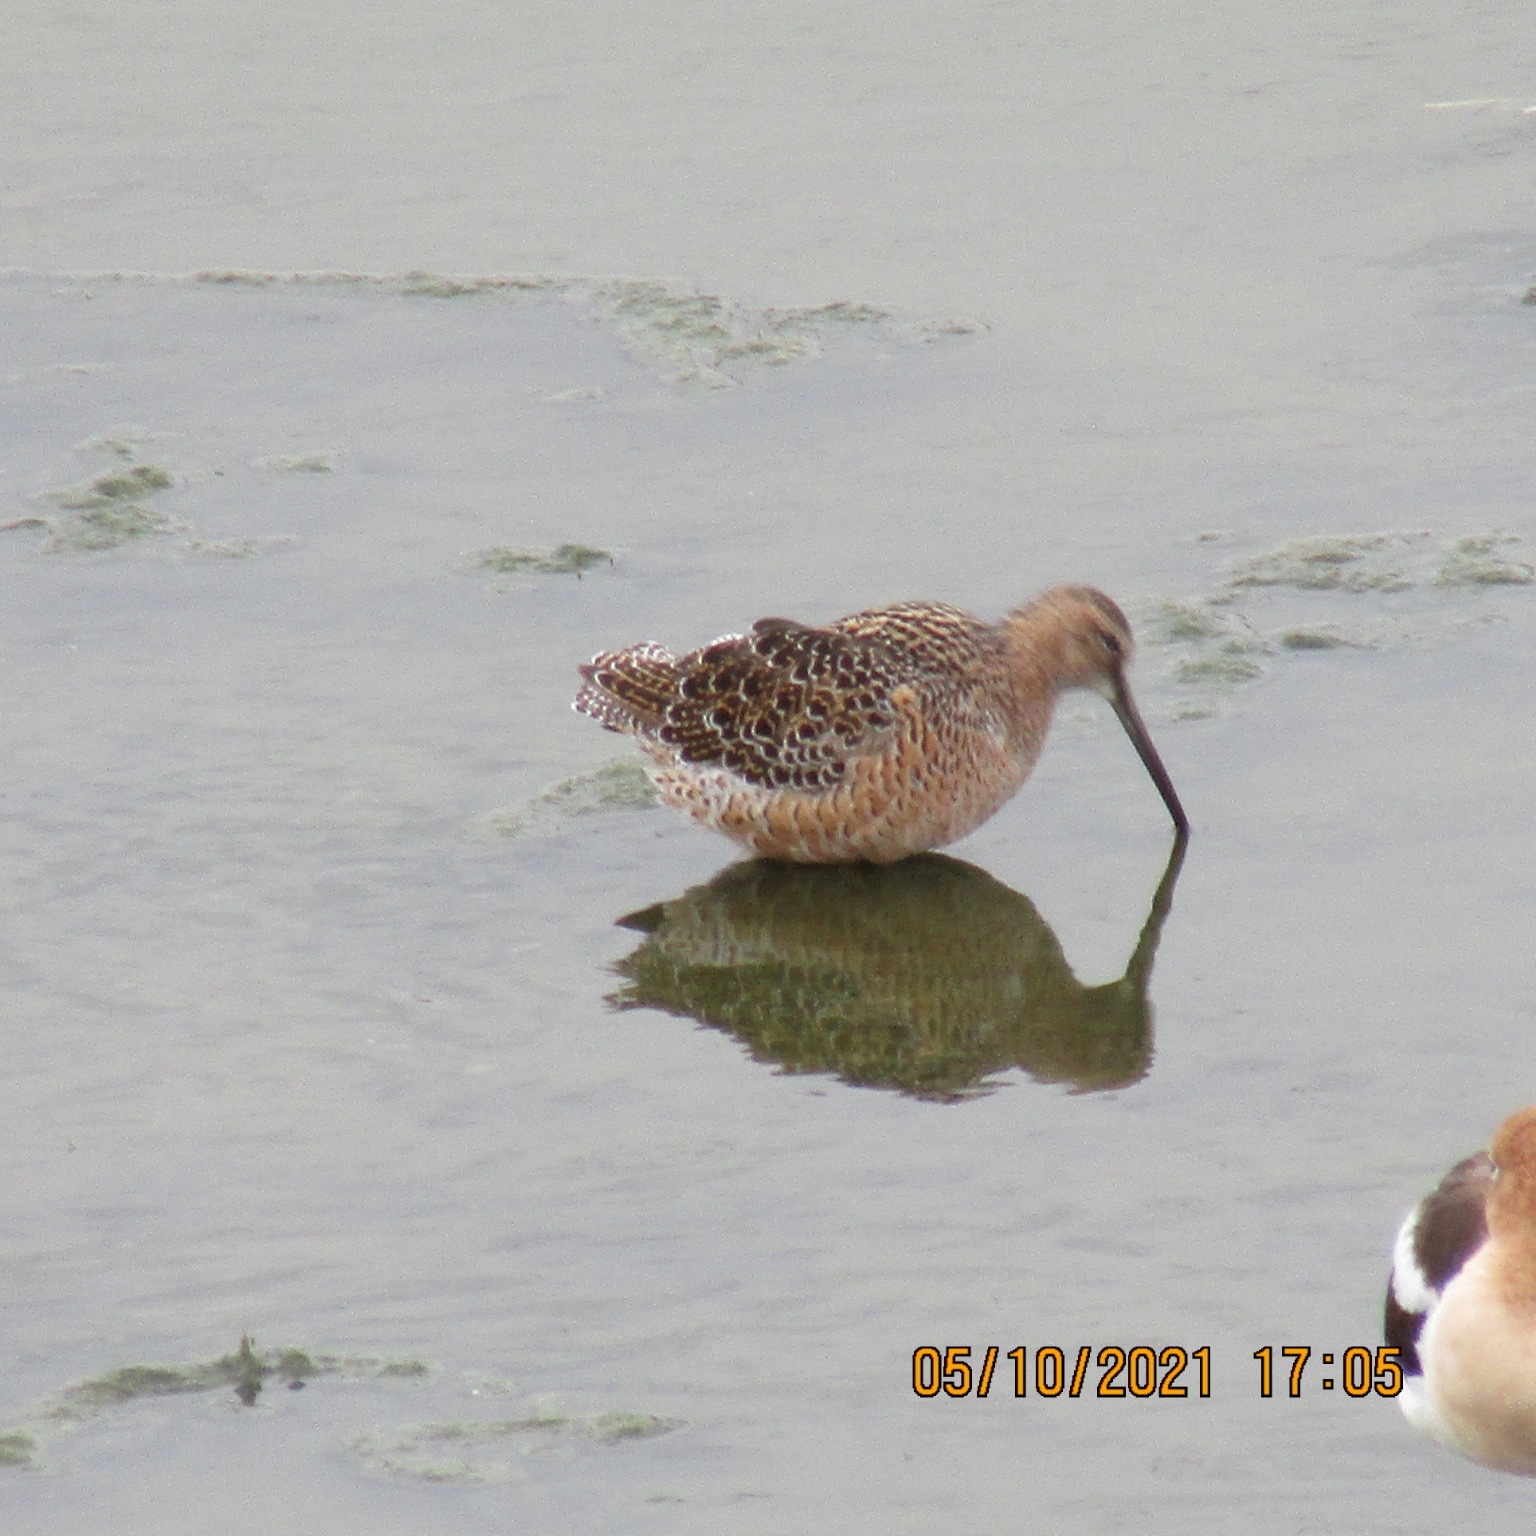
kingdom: Animalia
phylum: Chordata
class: Aves
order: Charadriiformes
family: Scolopacidae
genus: Limnodromus
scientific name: Limnodromus scolopaceus
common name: Long-billed dowitcher
